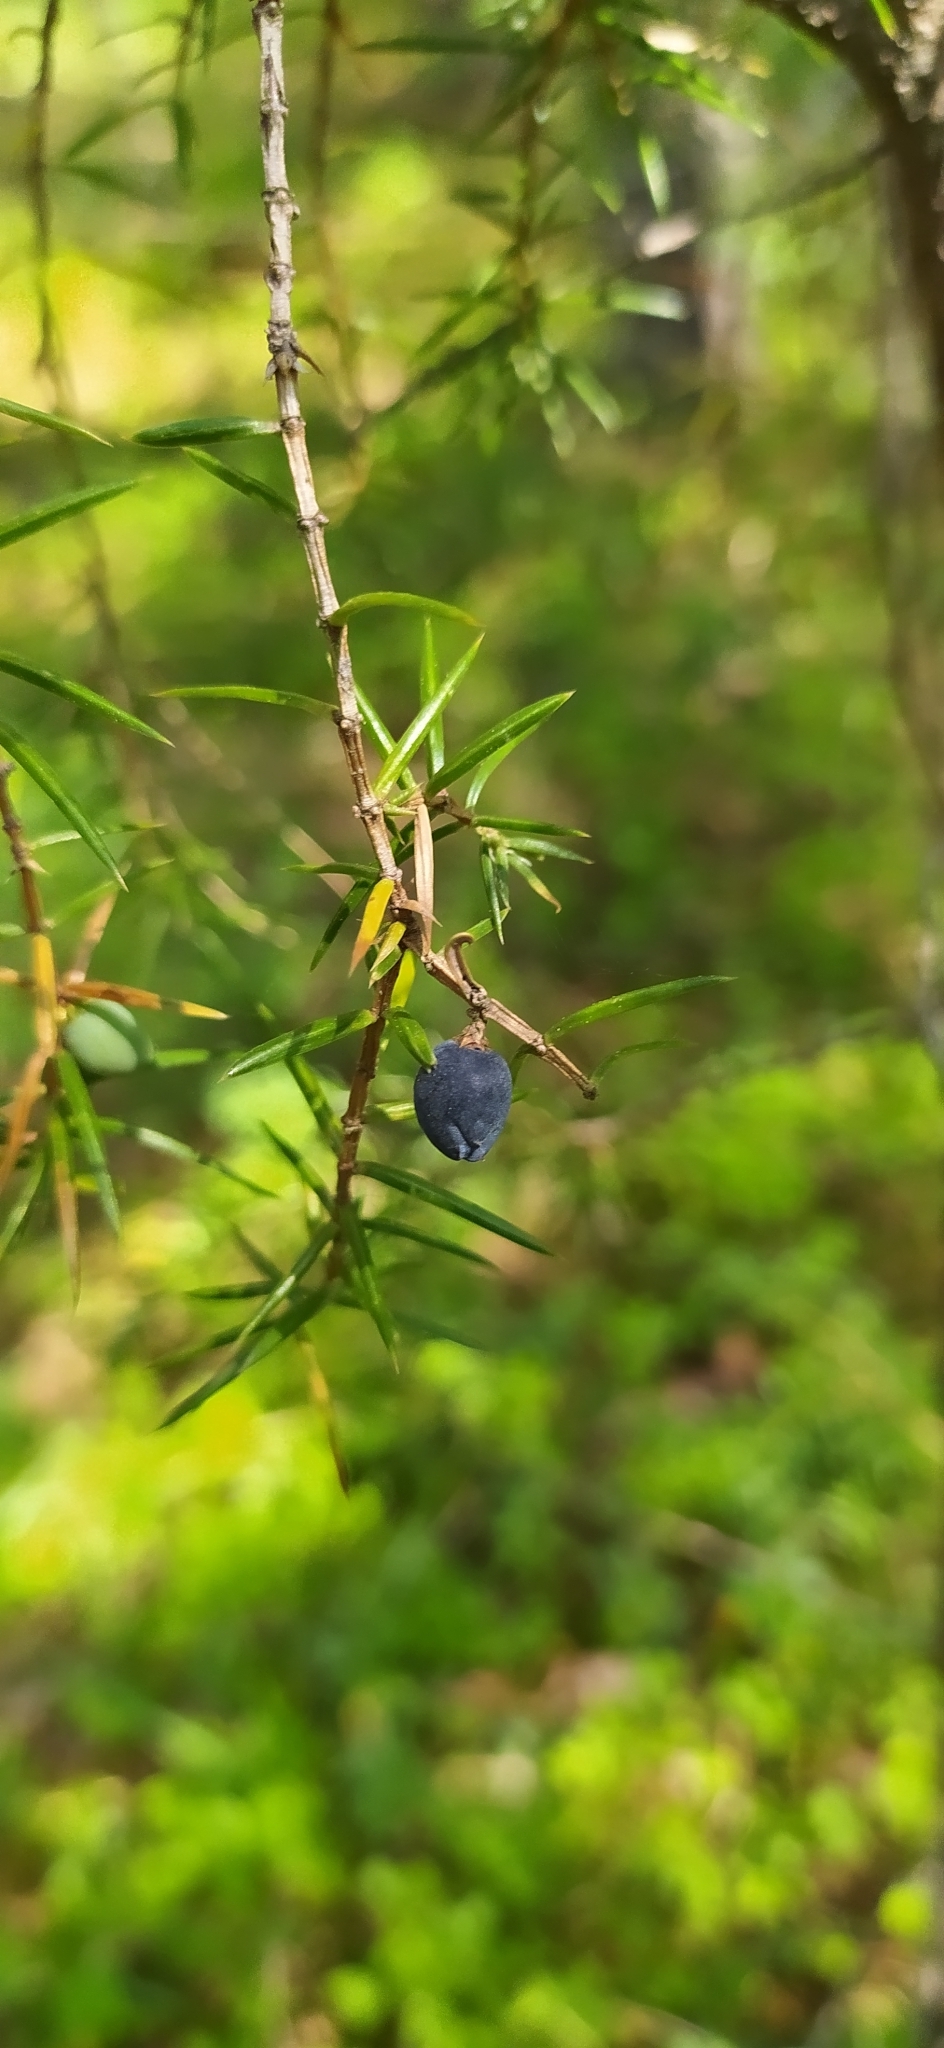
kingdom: Plantae
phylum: Tracheophyta
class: Pinopsida
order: Pinales
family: Cupressaceae
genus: Juniperus
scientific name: Juniperus communis
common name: Common juniper
